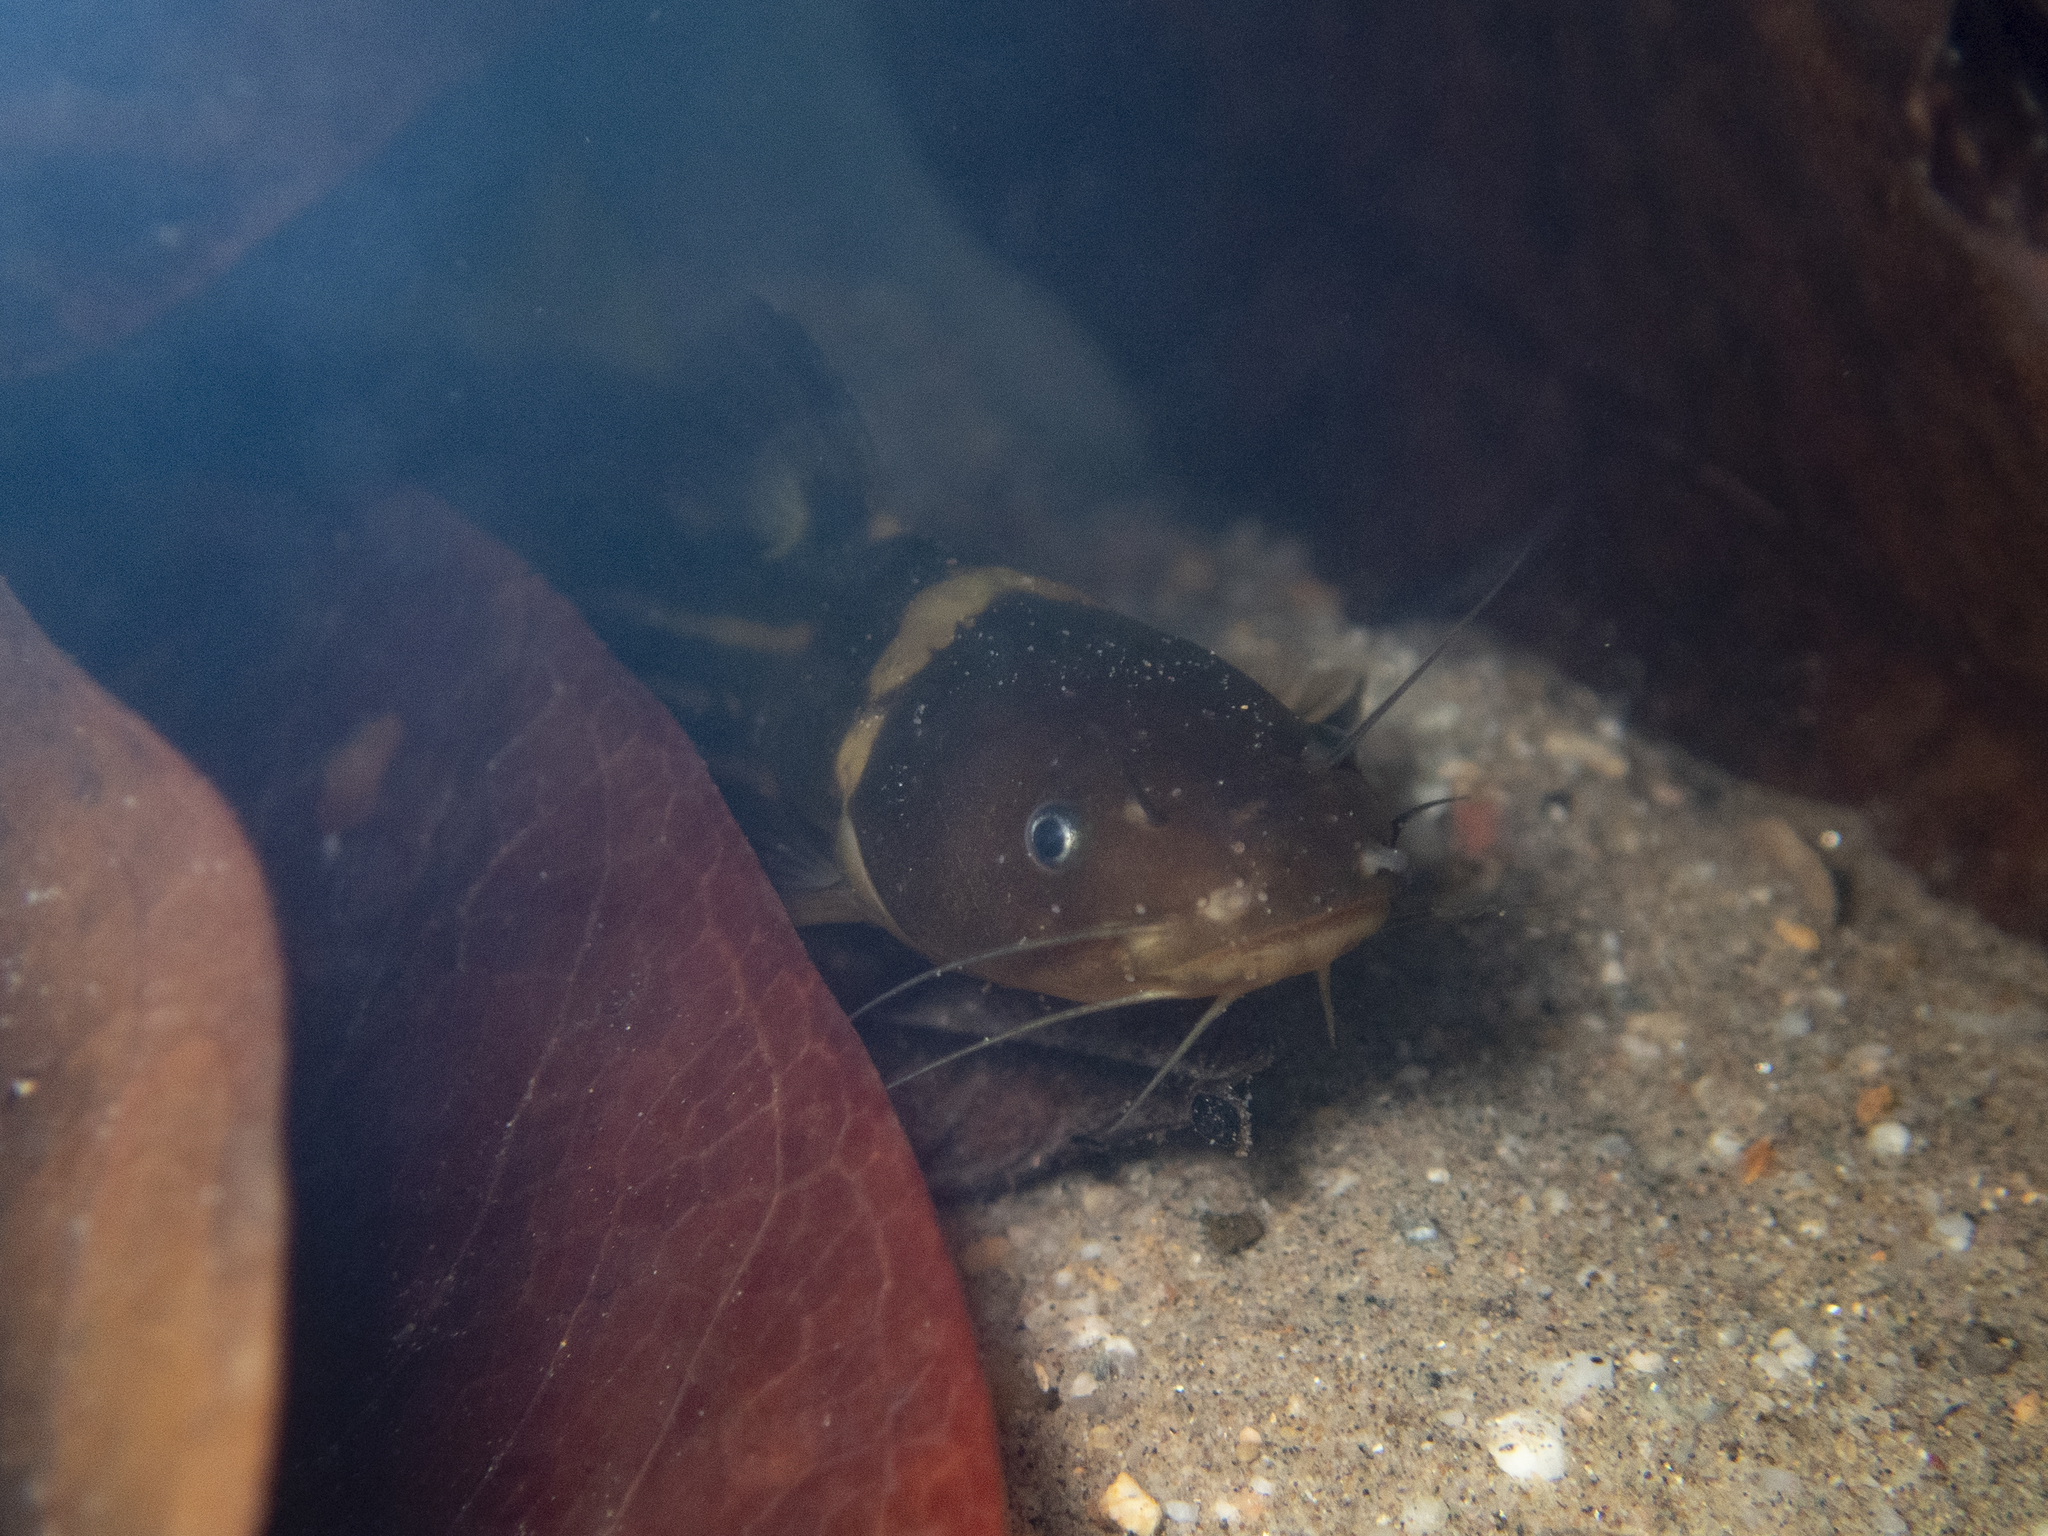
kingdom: Animalia
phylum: Chordata
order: Siluriformes
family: Bagridae
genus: Tachysurus
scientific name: Tachysurus trilineatus
